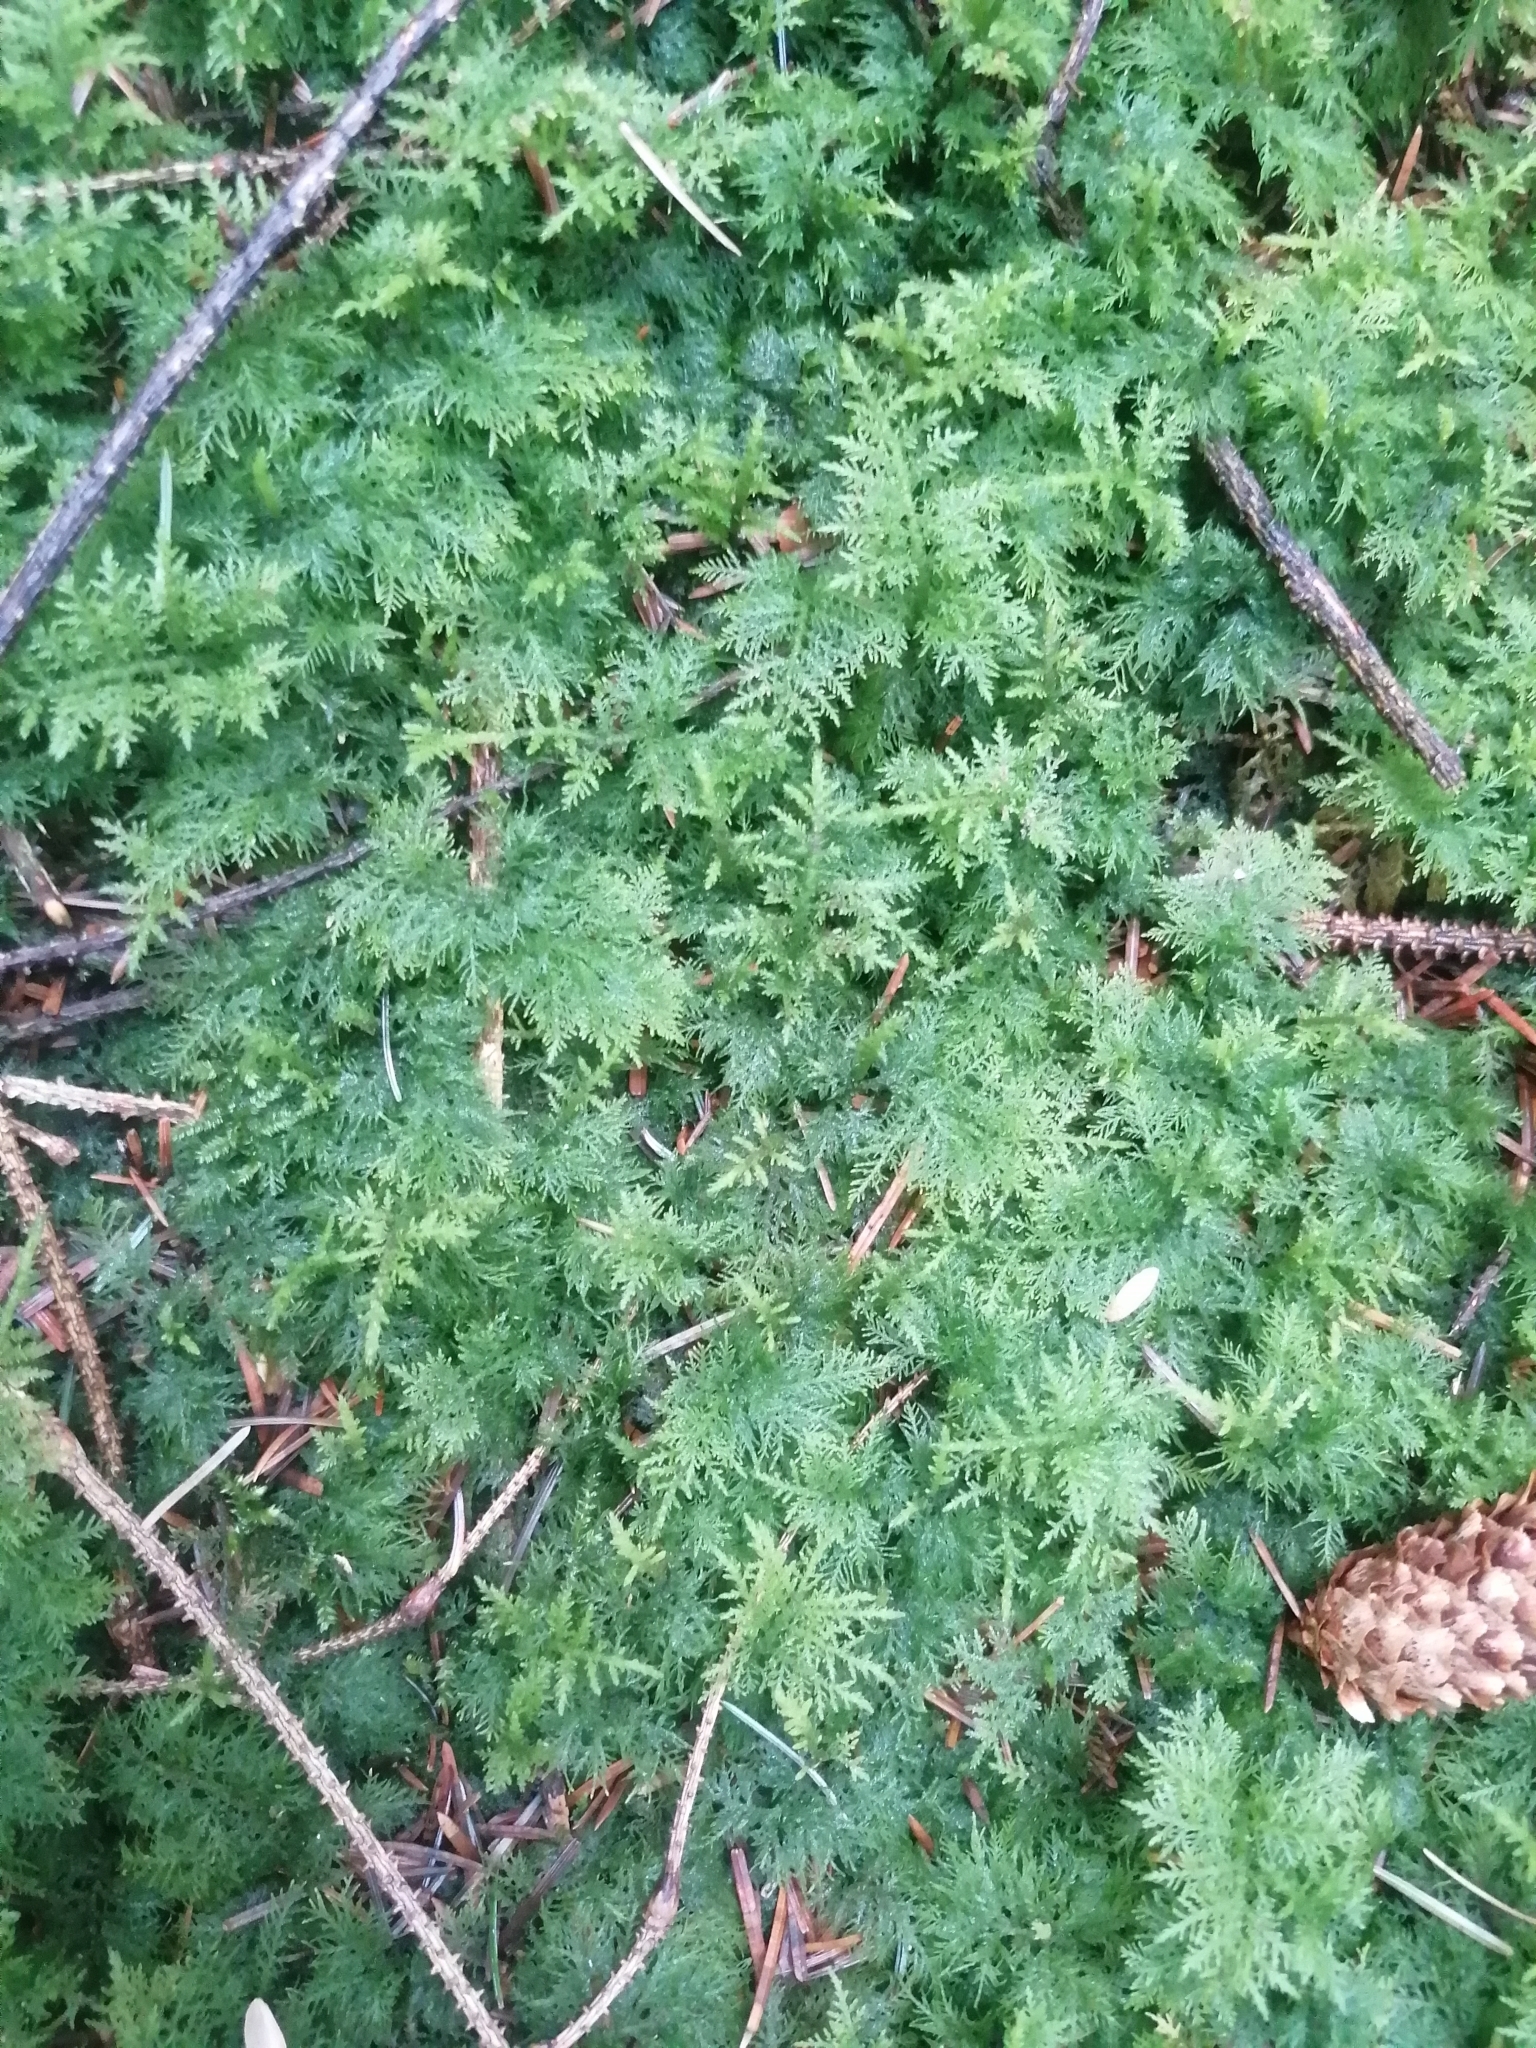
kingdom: Plantae
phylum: Bryophyta
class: Bryopsida
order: Hypnales
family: Thuidiaceae
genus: Thuidium
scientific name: Thuidium tamariscinum
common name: Common tamarisk-moss
